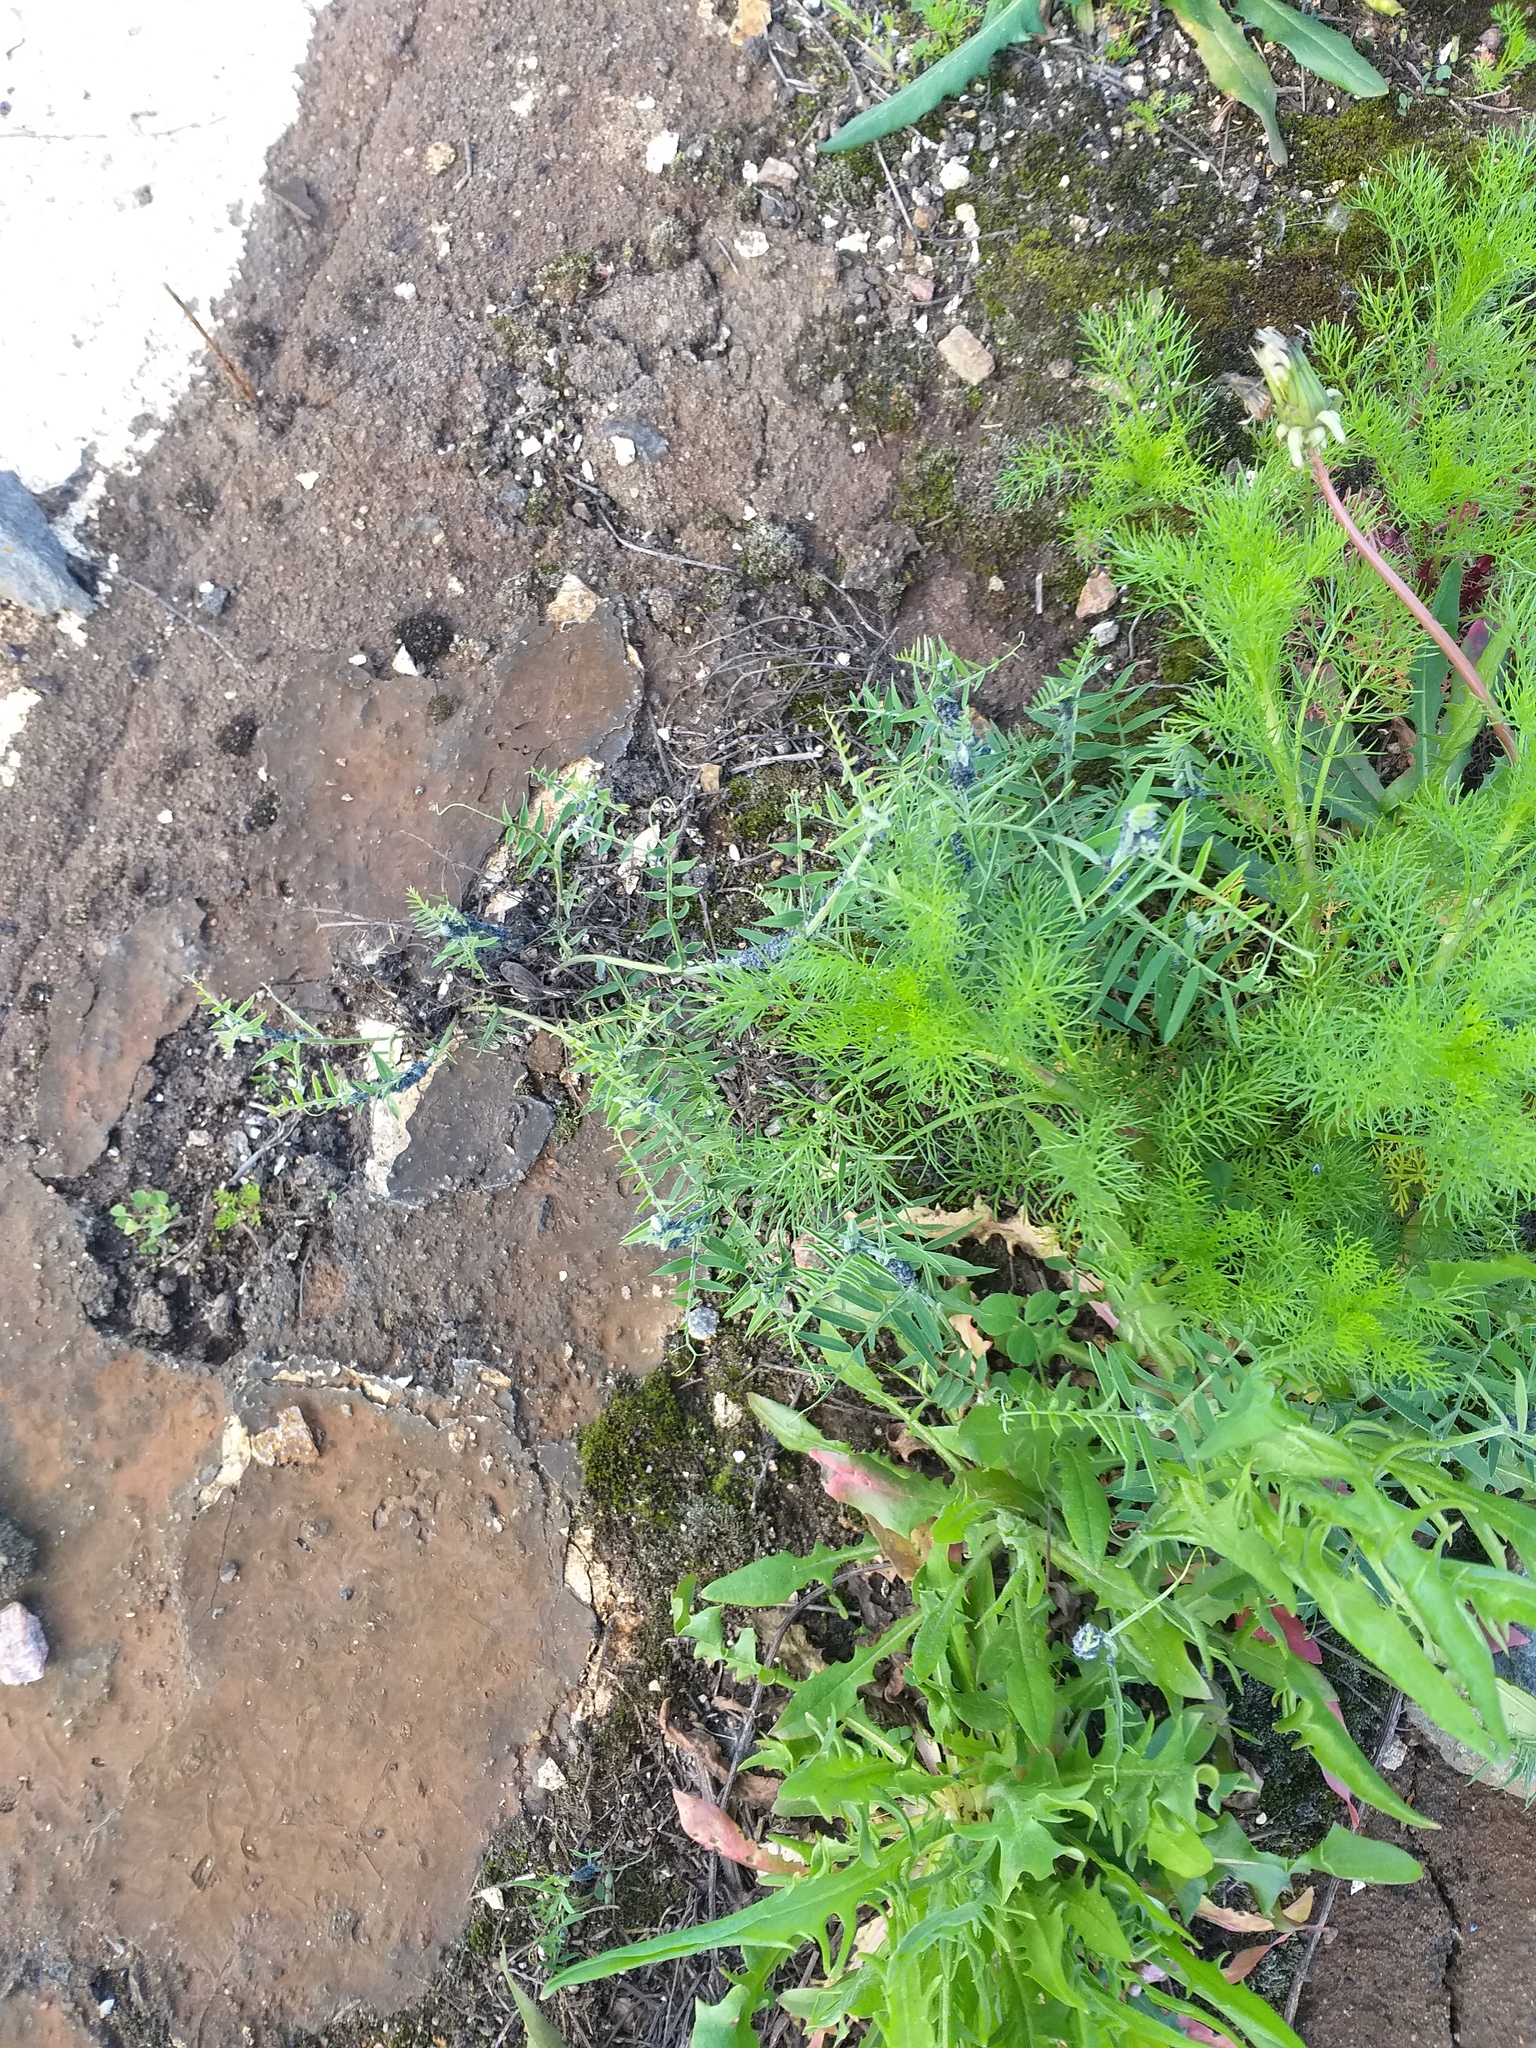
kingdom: Plantae
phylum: Tracheophyta
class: Magnoliopsida
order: Fabales
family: Fabaceae
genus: Vicia
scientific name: Vicia cracca
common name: Bird vetch
